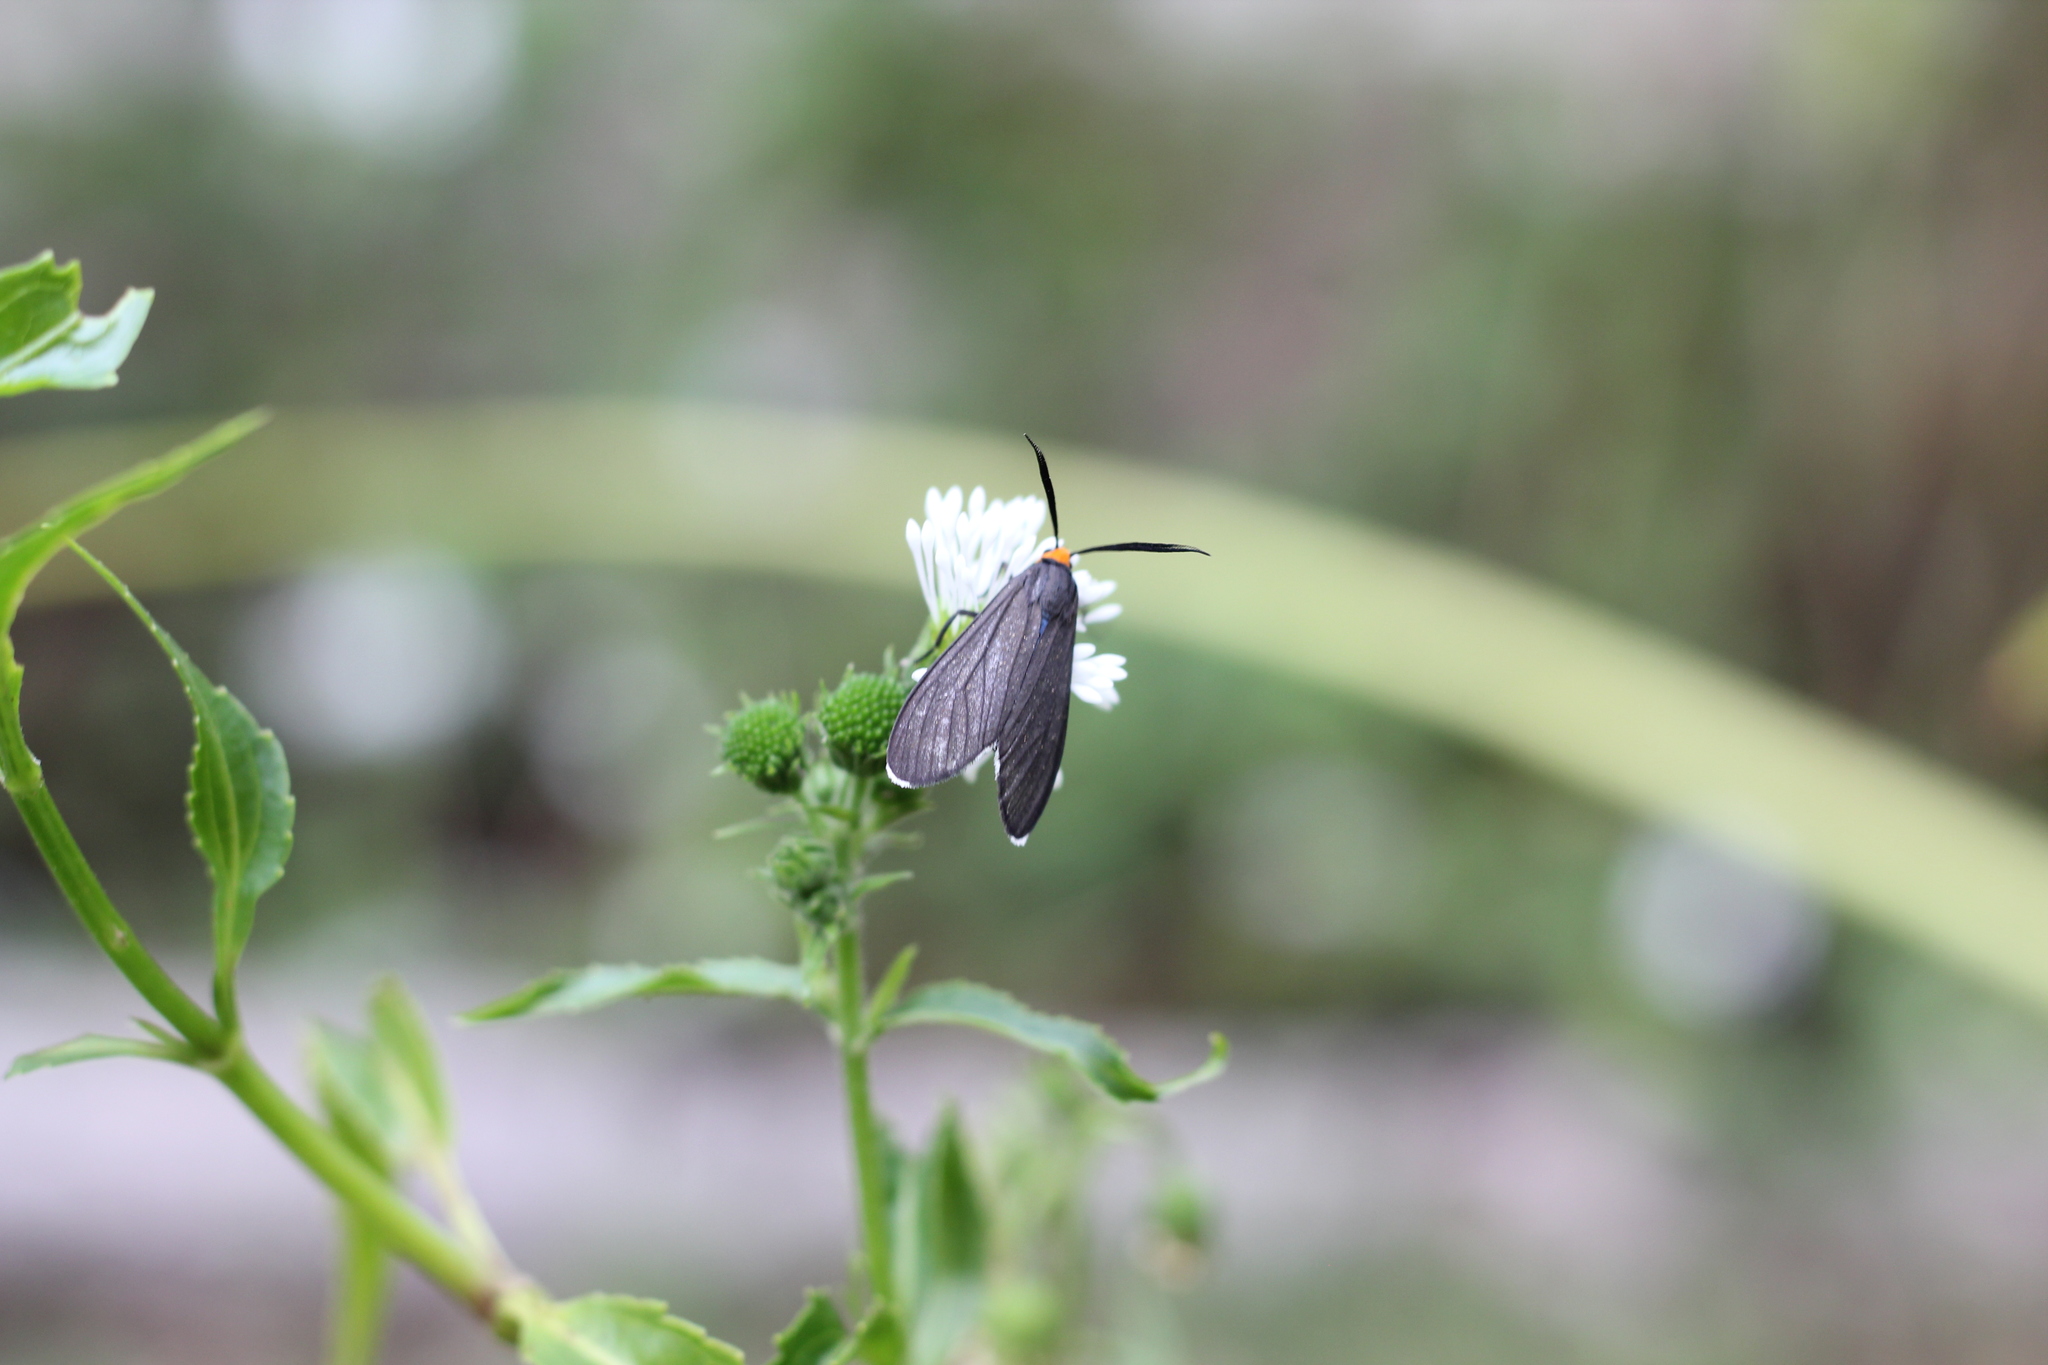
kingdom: Animalia
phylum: Arthropoda
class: Insecta
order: Lepidoptera
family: Erebidae
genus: Ctenucha
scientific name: Ctenucha rubriceps
